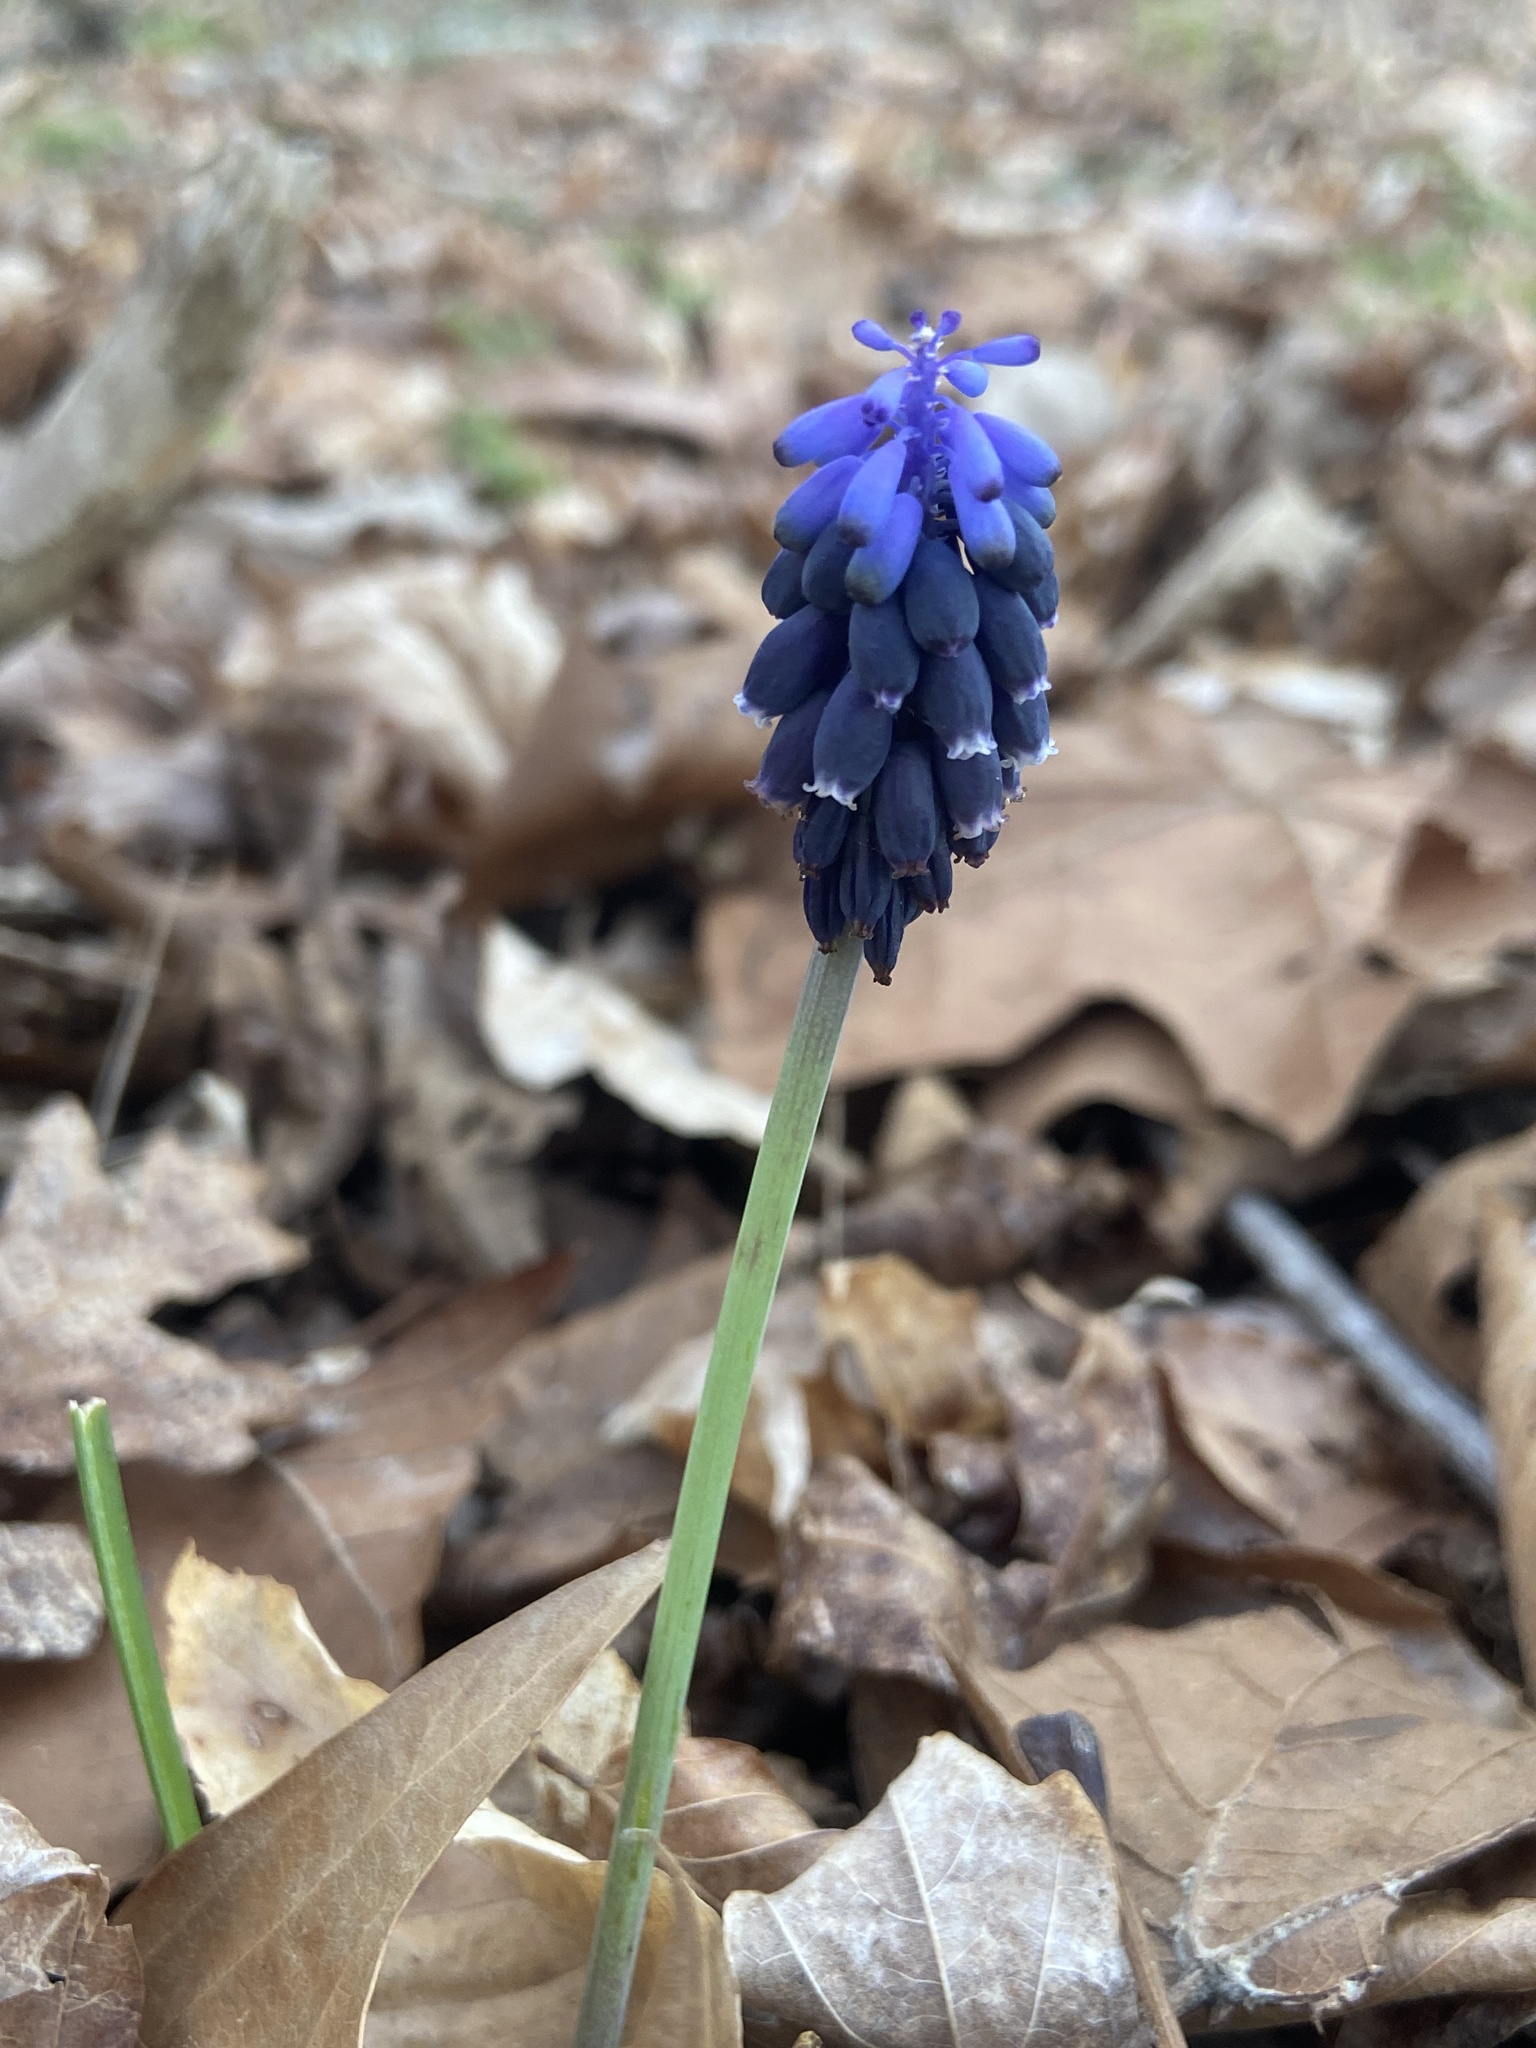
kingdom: Plantae
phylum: Tracheophyta
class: Liliopsida
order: Asparagales
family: Asparagaceae
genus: Muscari
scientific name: Muscari neglectum
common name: Grape-hyacinth
